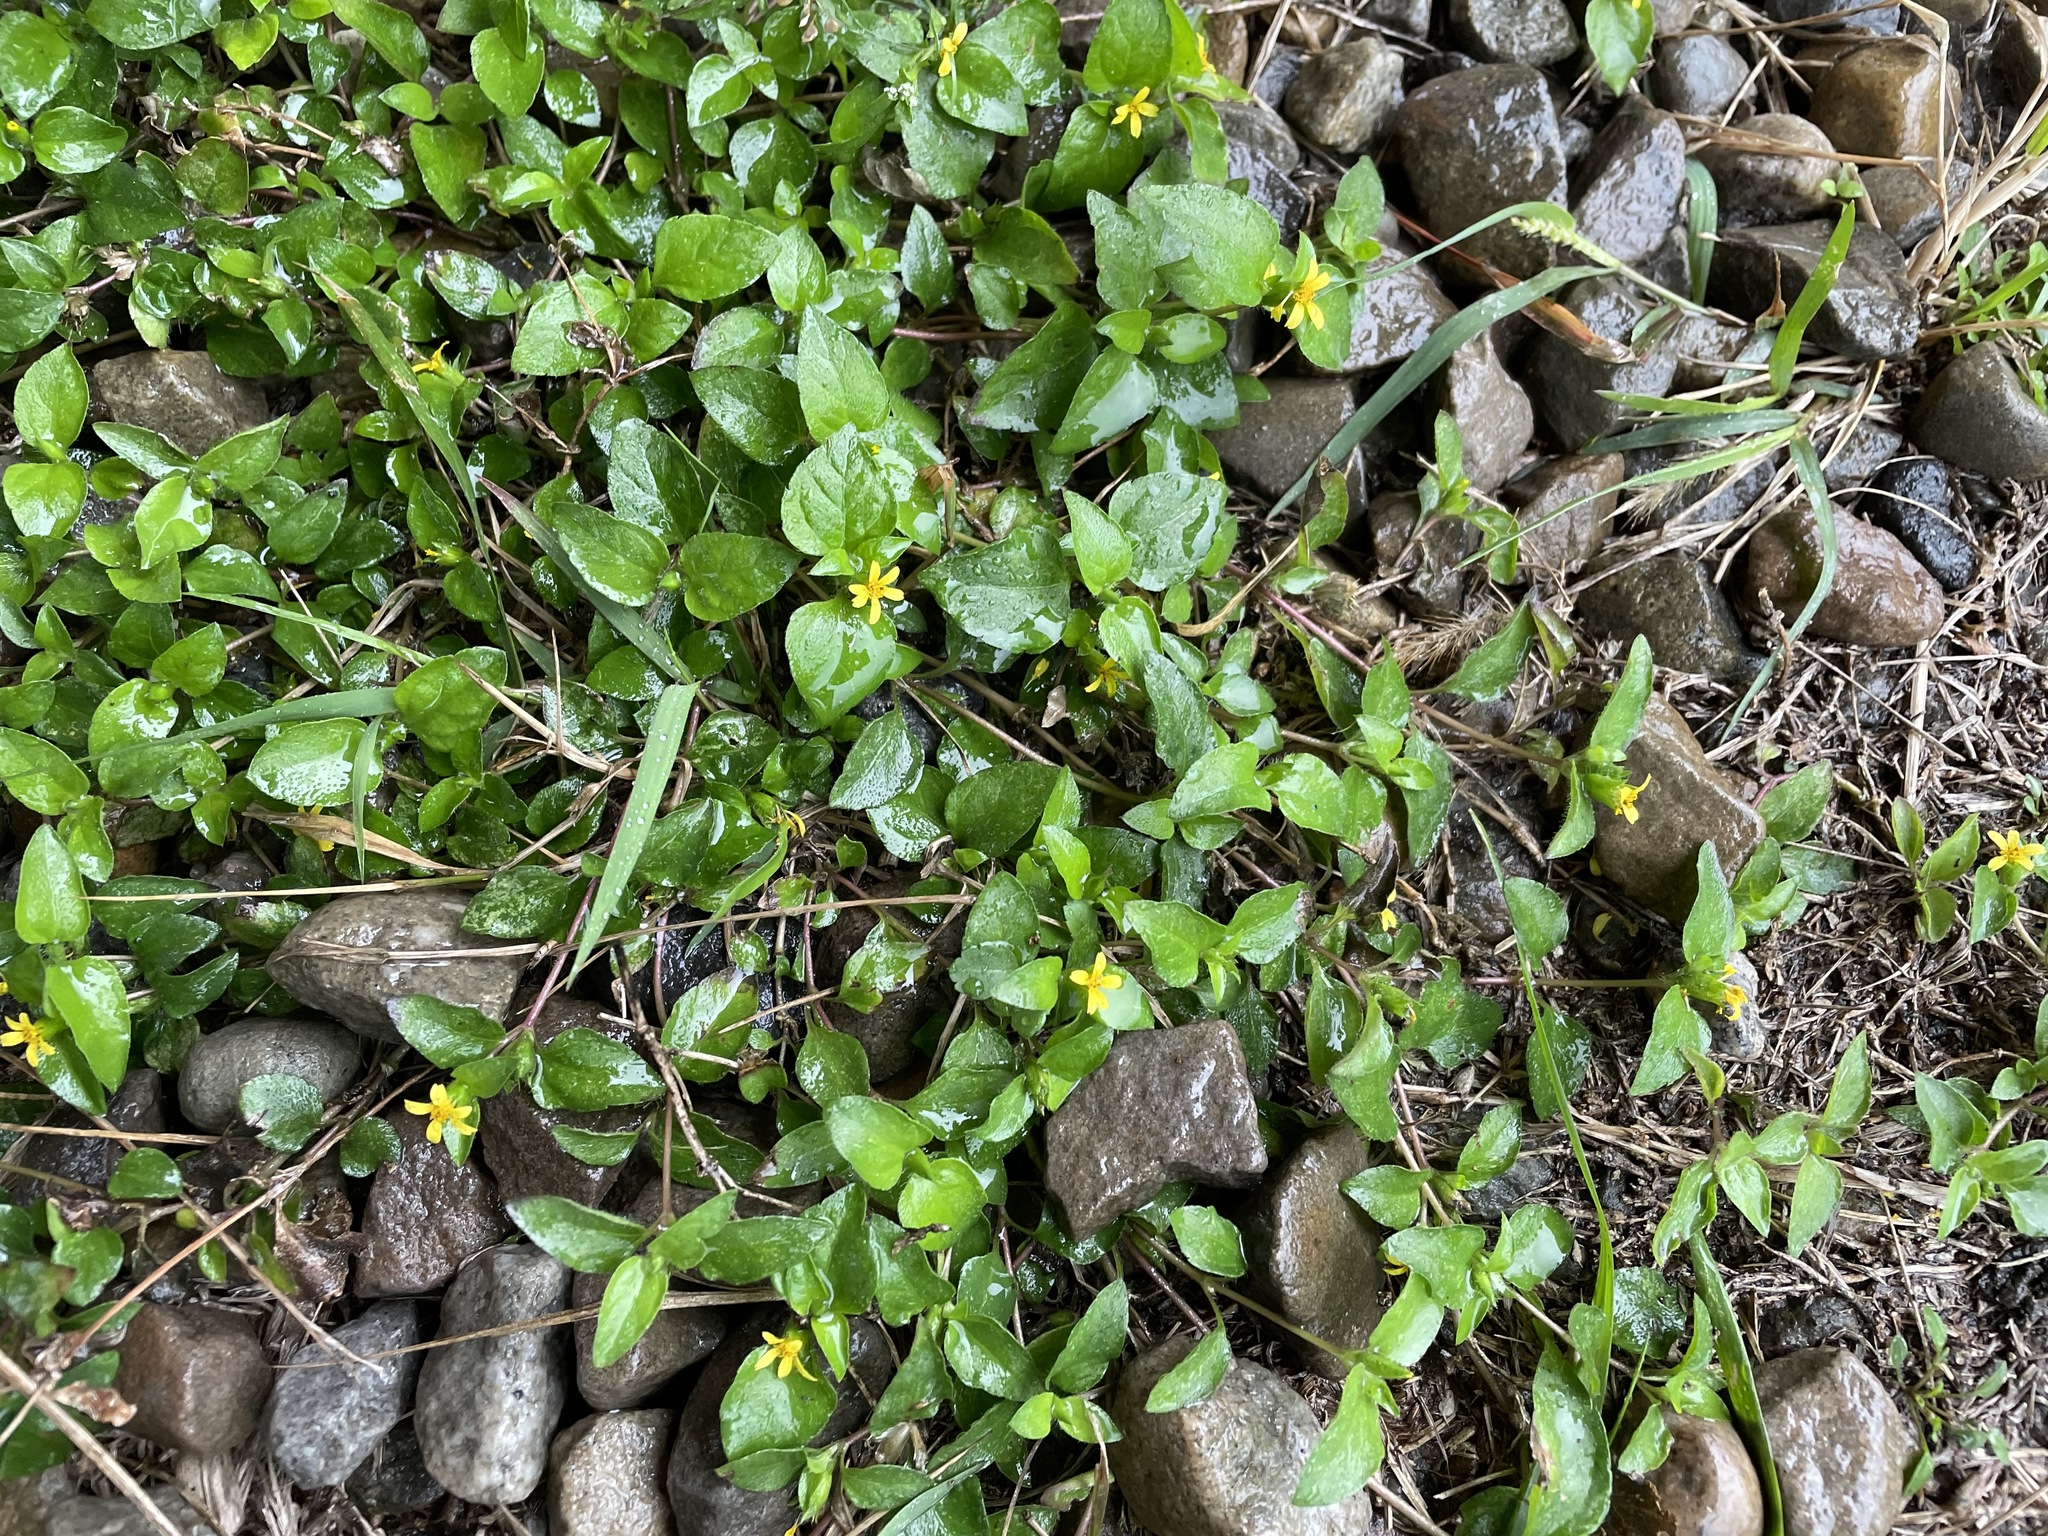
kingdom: Plantae
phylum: Tracheophyta
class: Magnoliopsida
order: Asterales
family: Asteraceae
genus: Calyptocarpus
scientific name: Calyptocarpus vialis
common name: Straggler daisy
